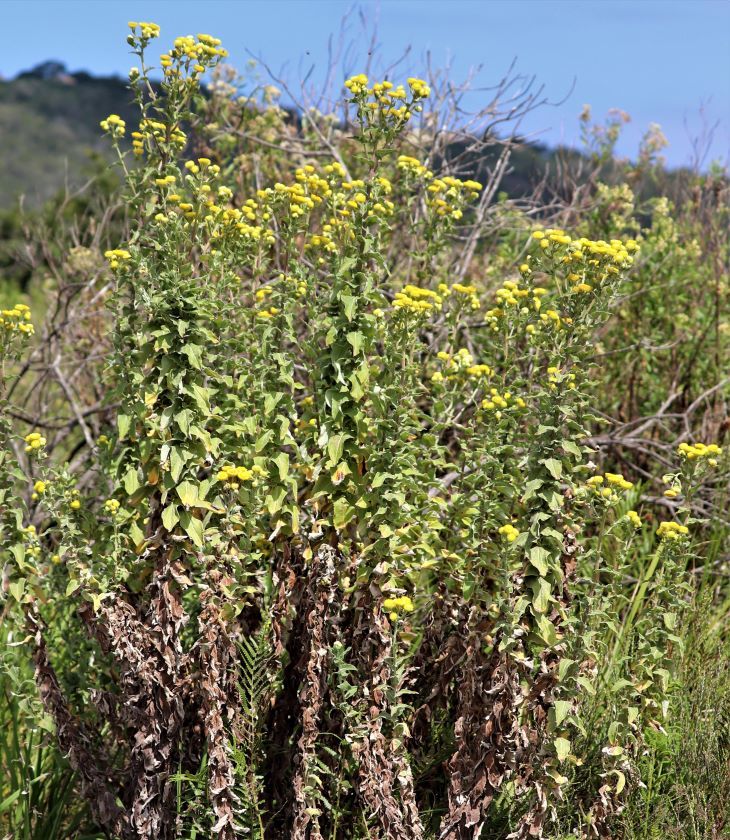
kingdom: Plantae
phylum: Tracheophyta
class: Magnoliopsida
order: Asterales
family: Asteraceae
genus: Helichrysum
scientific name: Helichrysum foetidum
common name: Stinking everlasting
